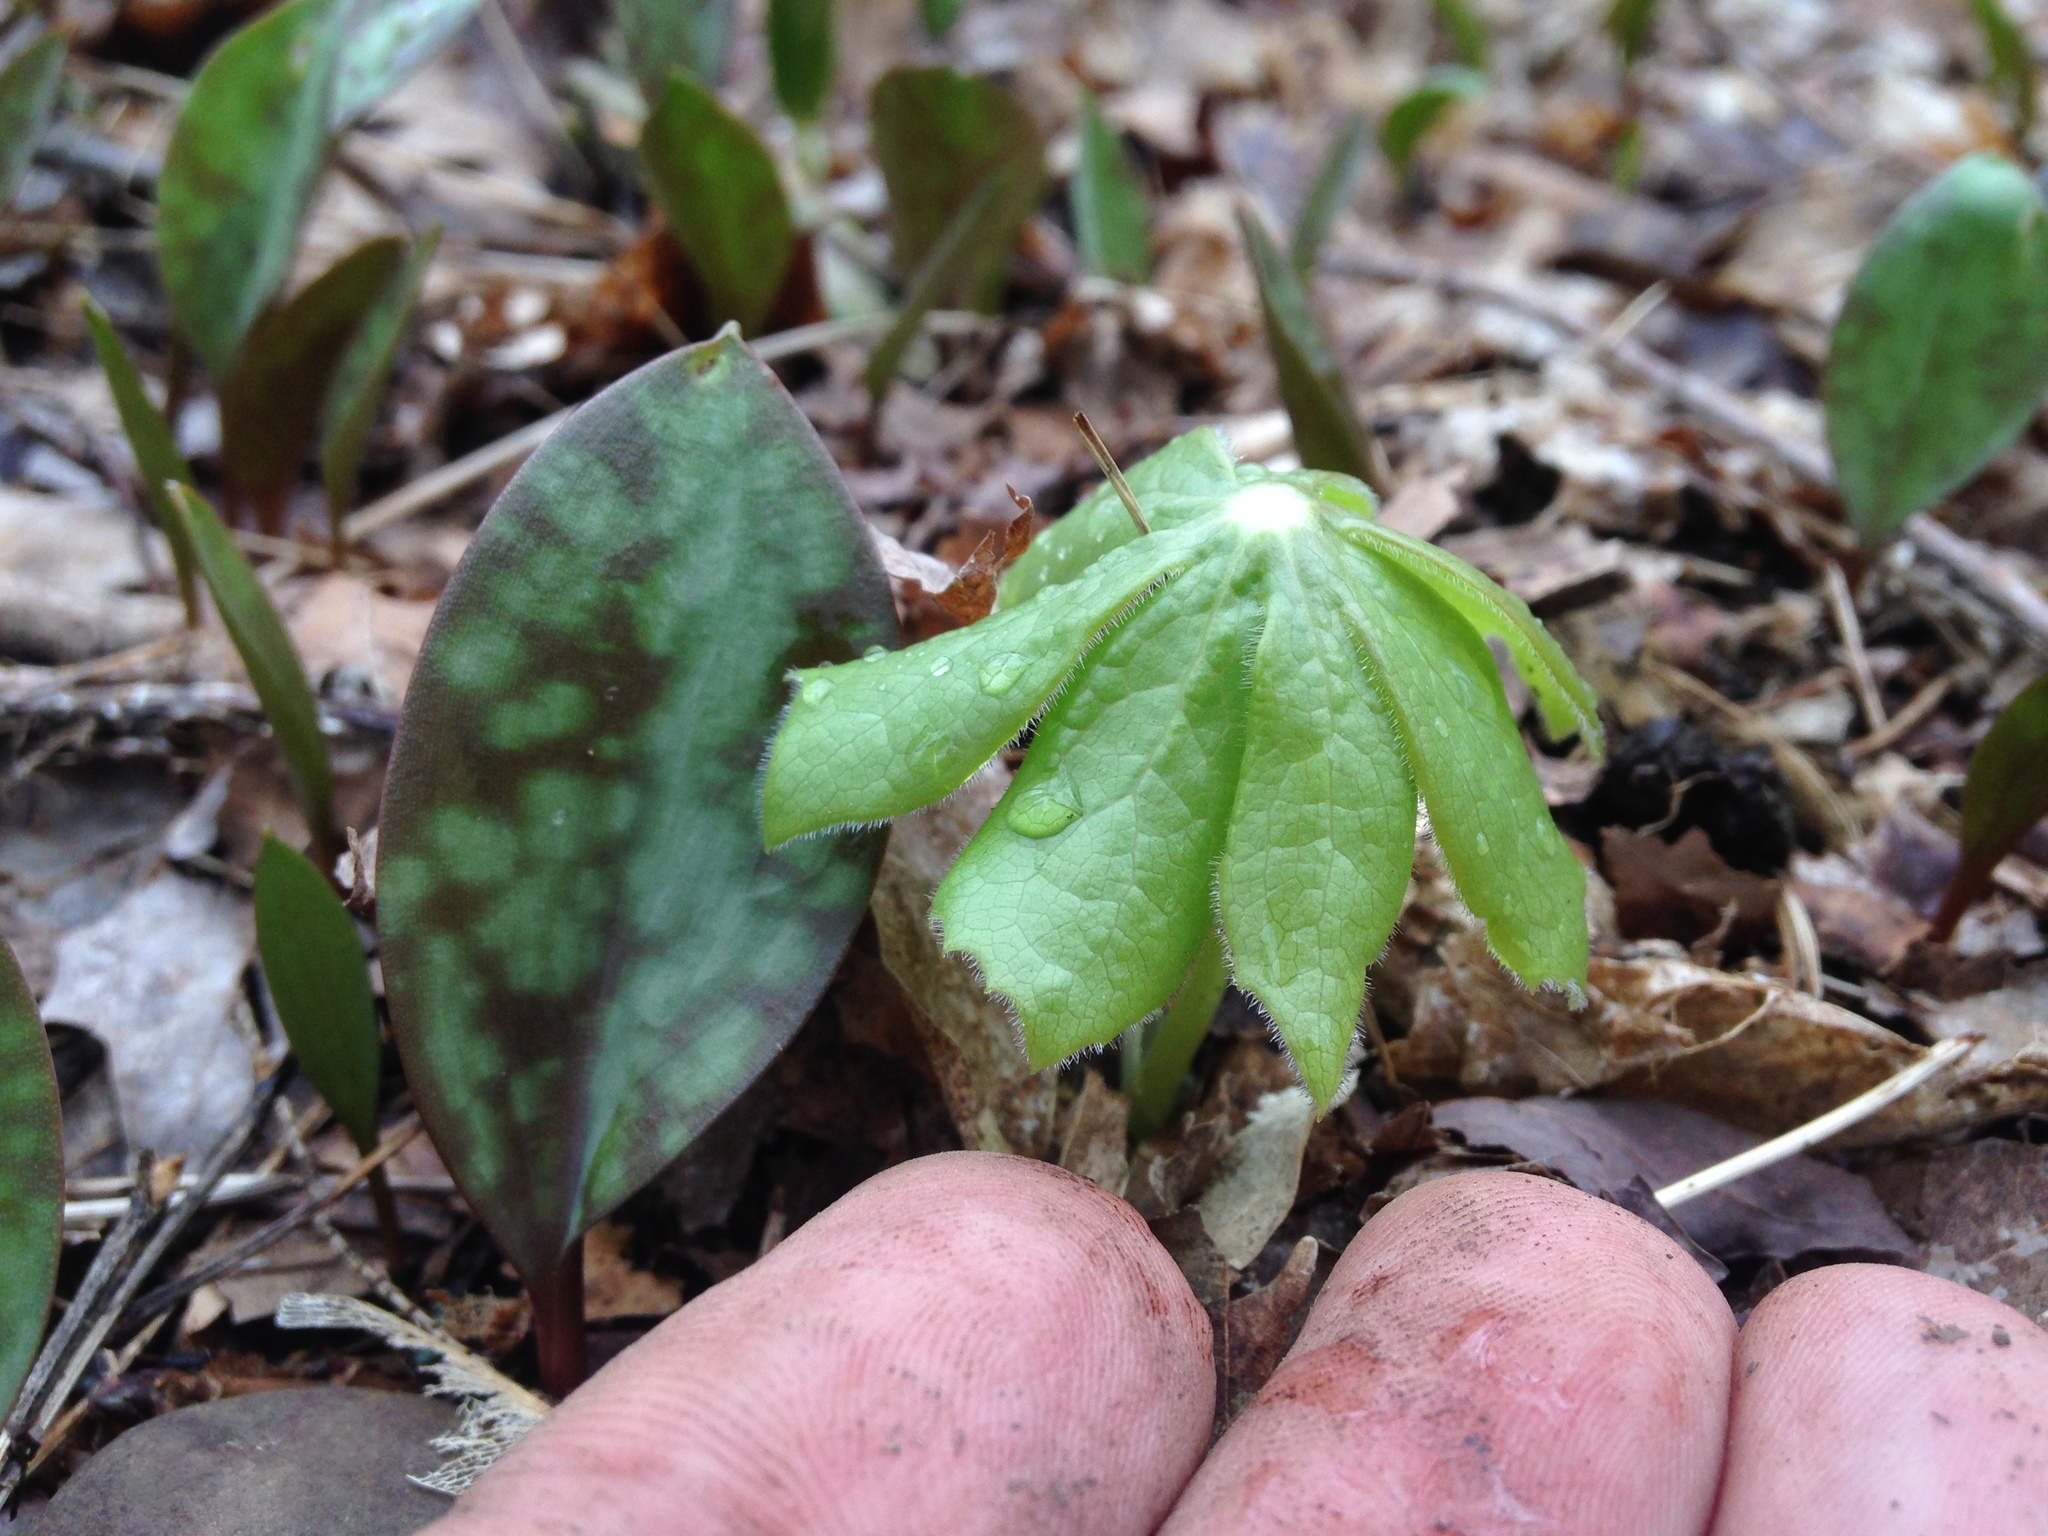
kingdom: Plantae
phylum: Tracheophyta
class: Magnoliopsida
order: Ranunculales
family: Berberidaceae
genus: Podophyllum
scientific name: Podophyllum peltatum
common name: Wild mandrake
